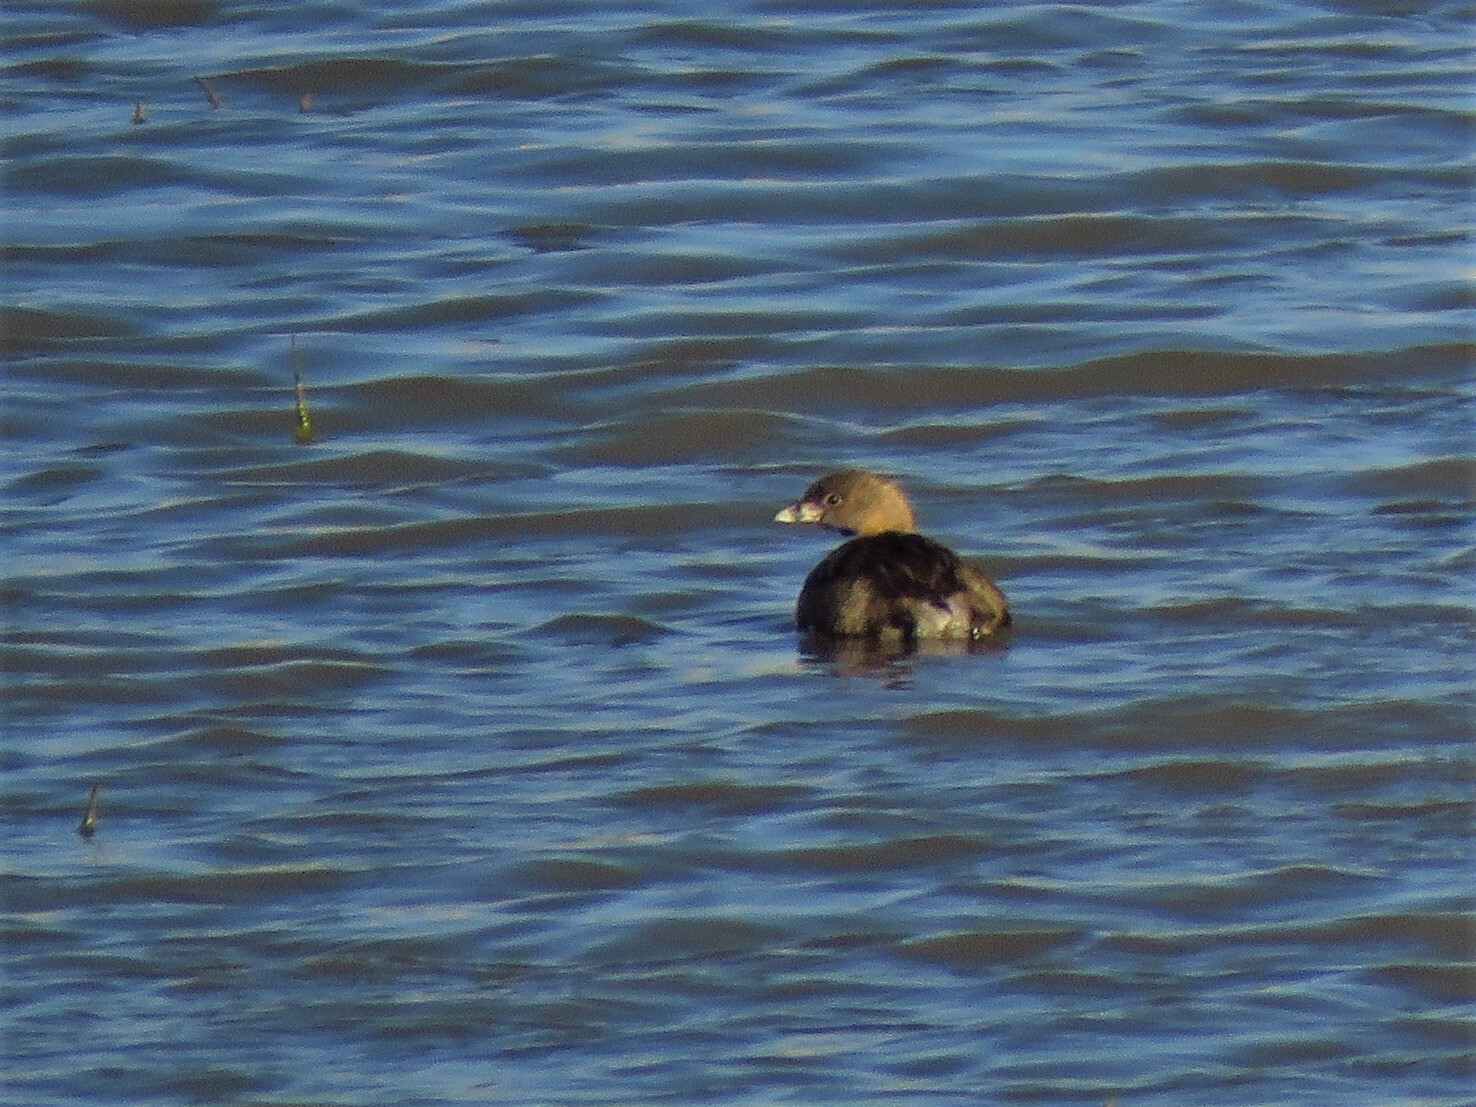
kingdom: Animalia
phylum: Chordata
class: Aves
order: Podicipediformes
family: Podicipedidae
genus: Podilymbus
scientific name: Podilymbus podiceps
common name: Pied-billed grebe
